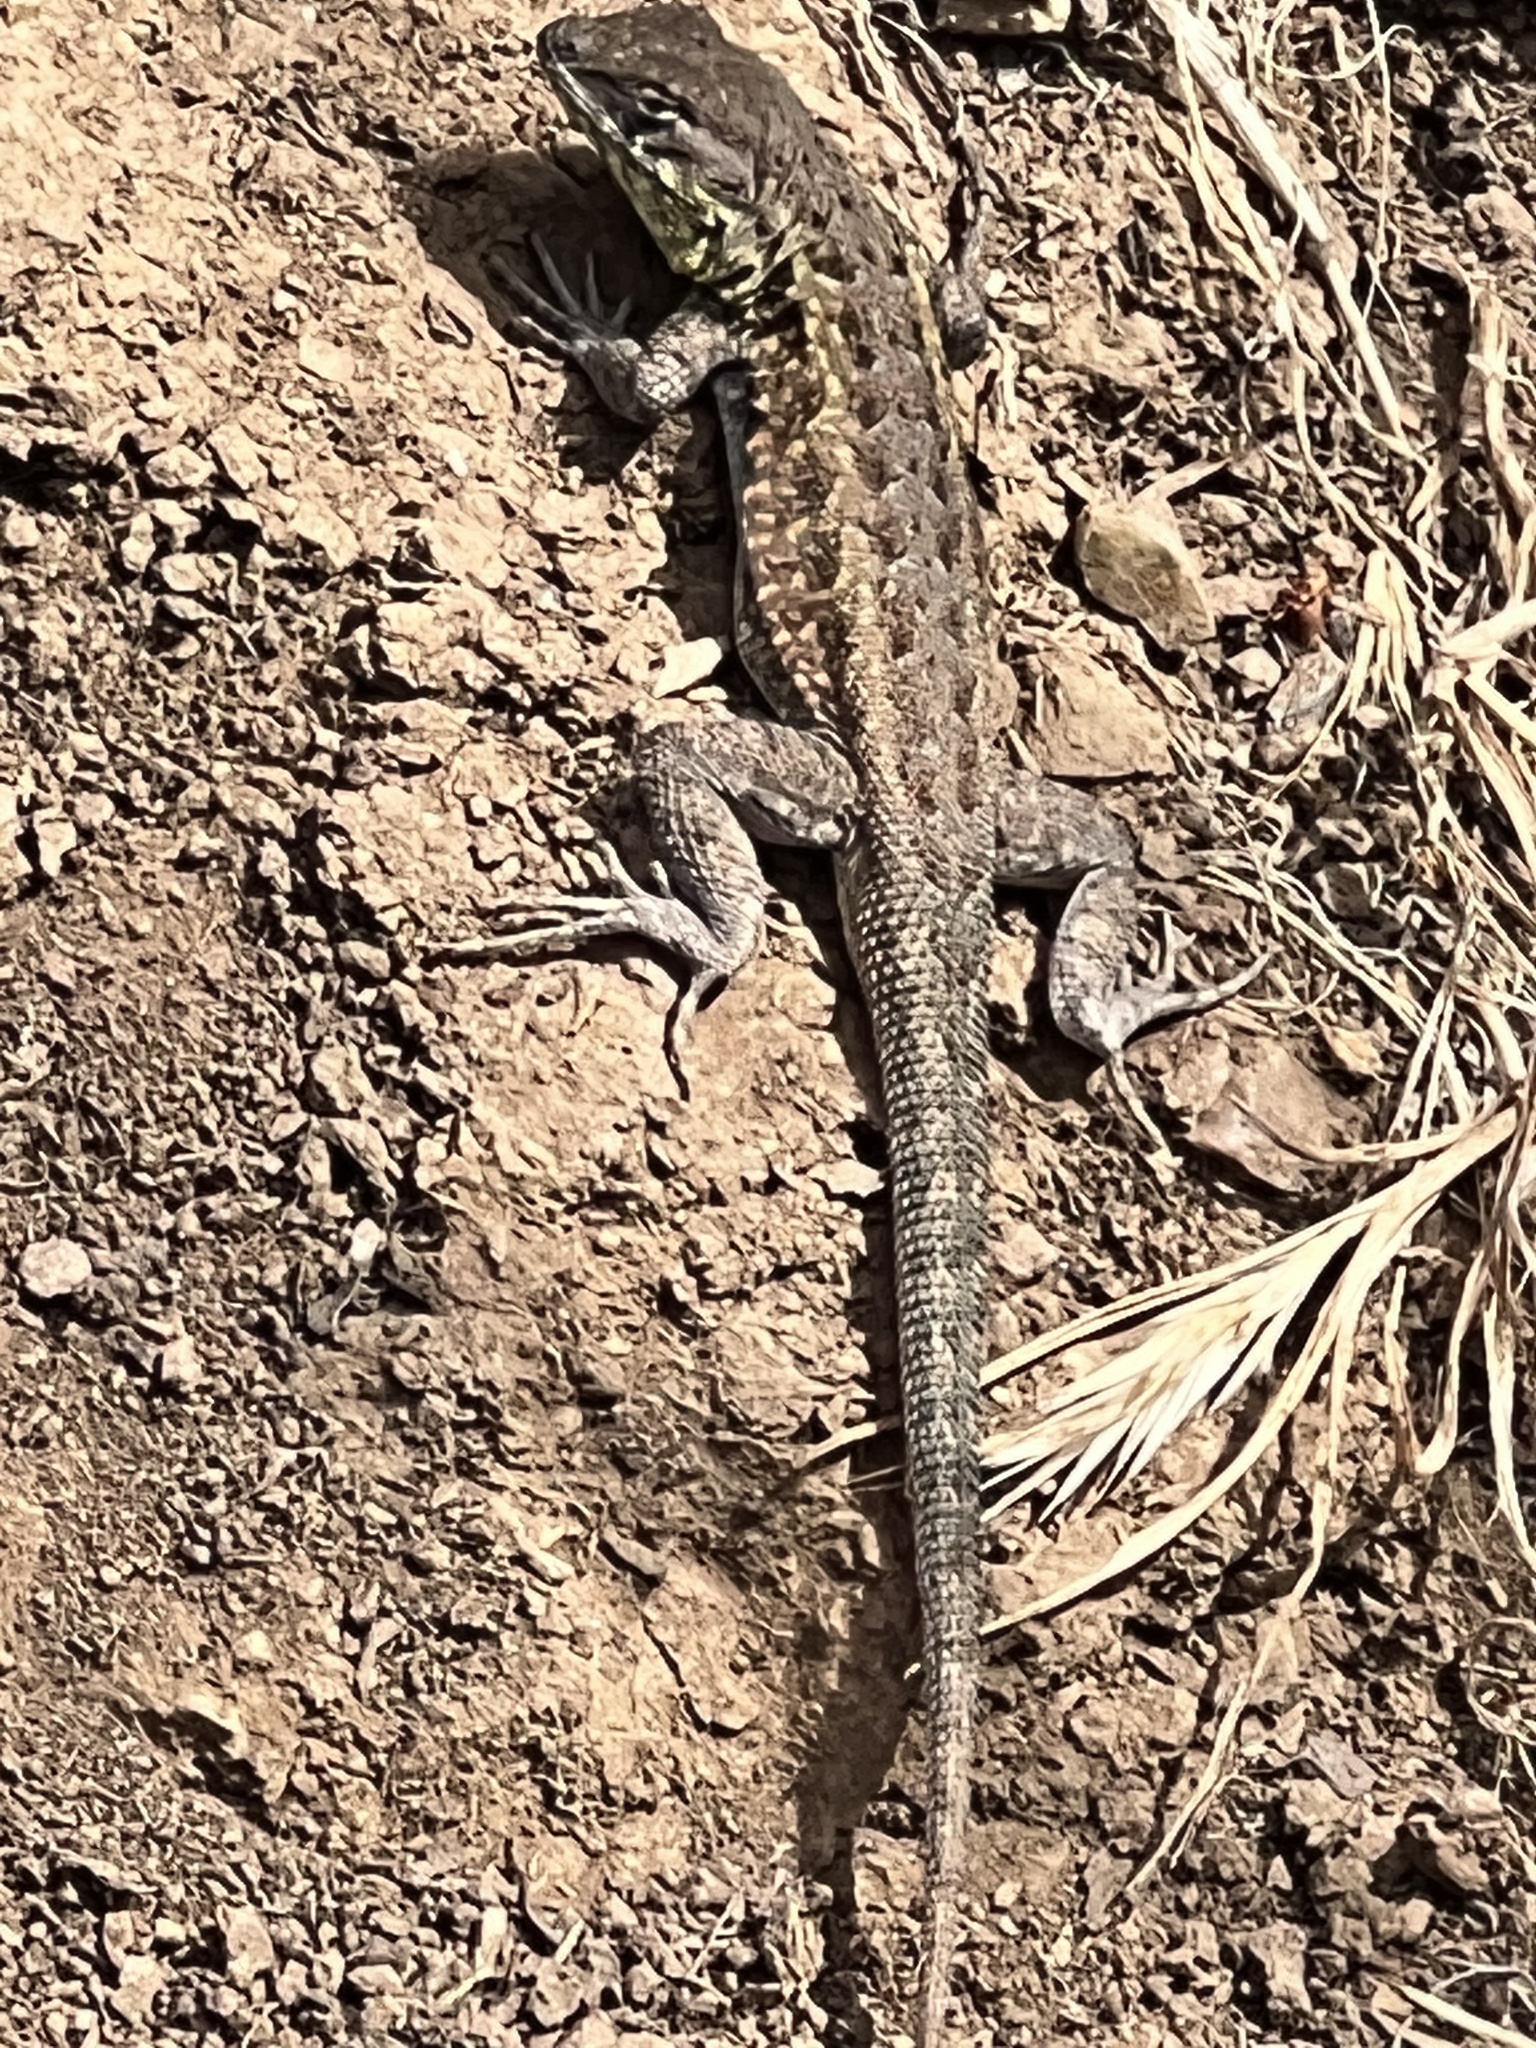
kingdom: Animalia
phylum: Chordata
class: Squamata
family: Phrynosomatidae
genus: Uta
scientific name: Uta stansburiana
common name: Side-blotched lizard
